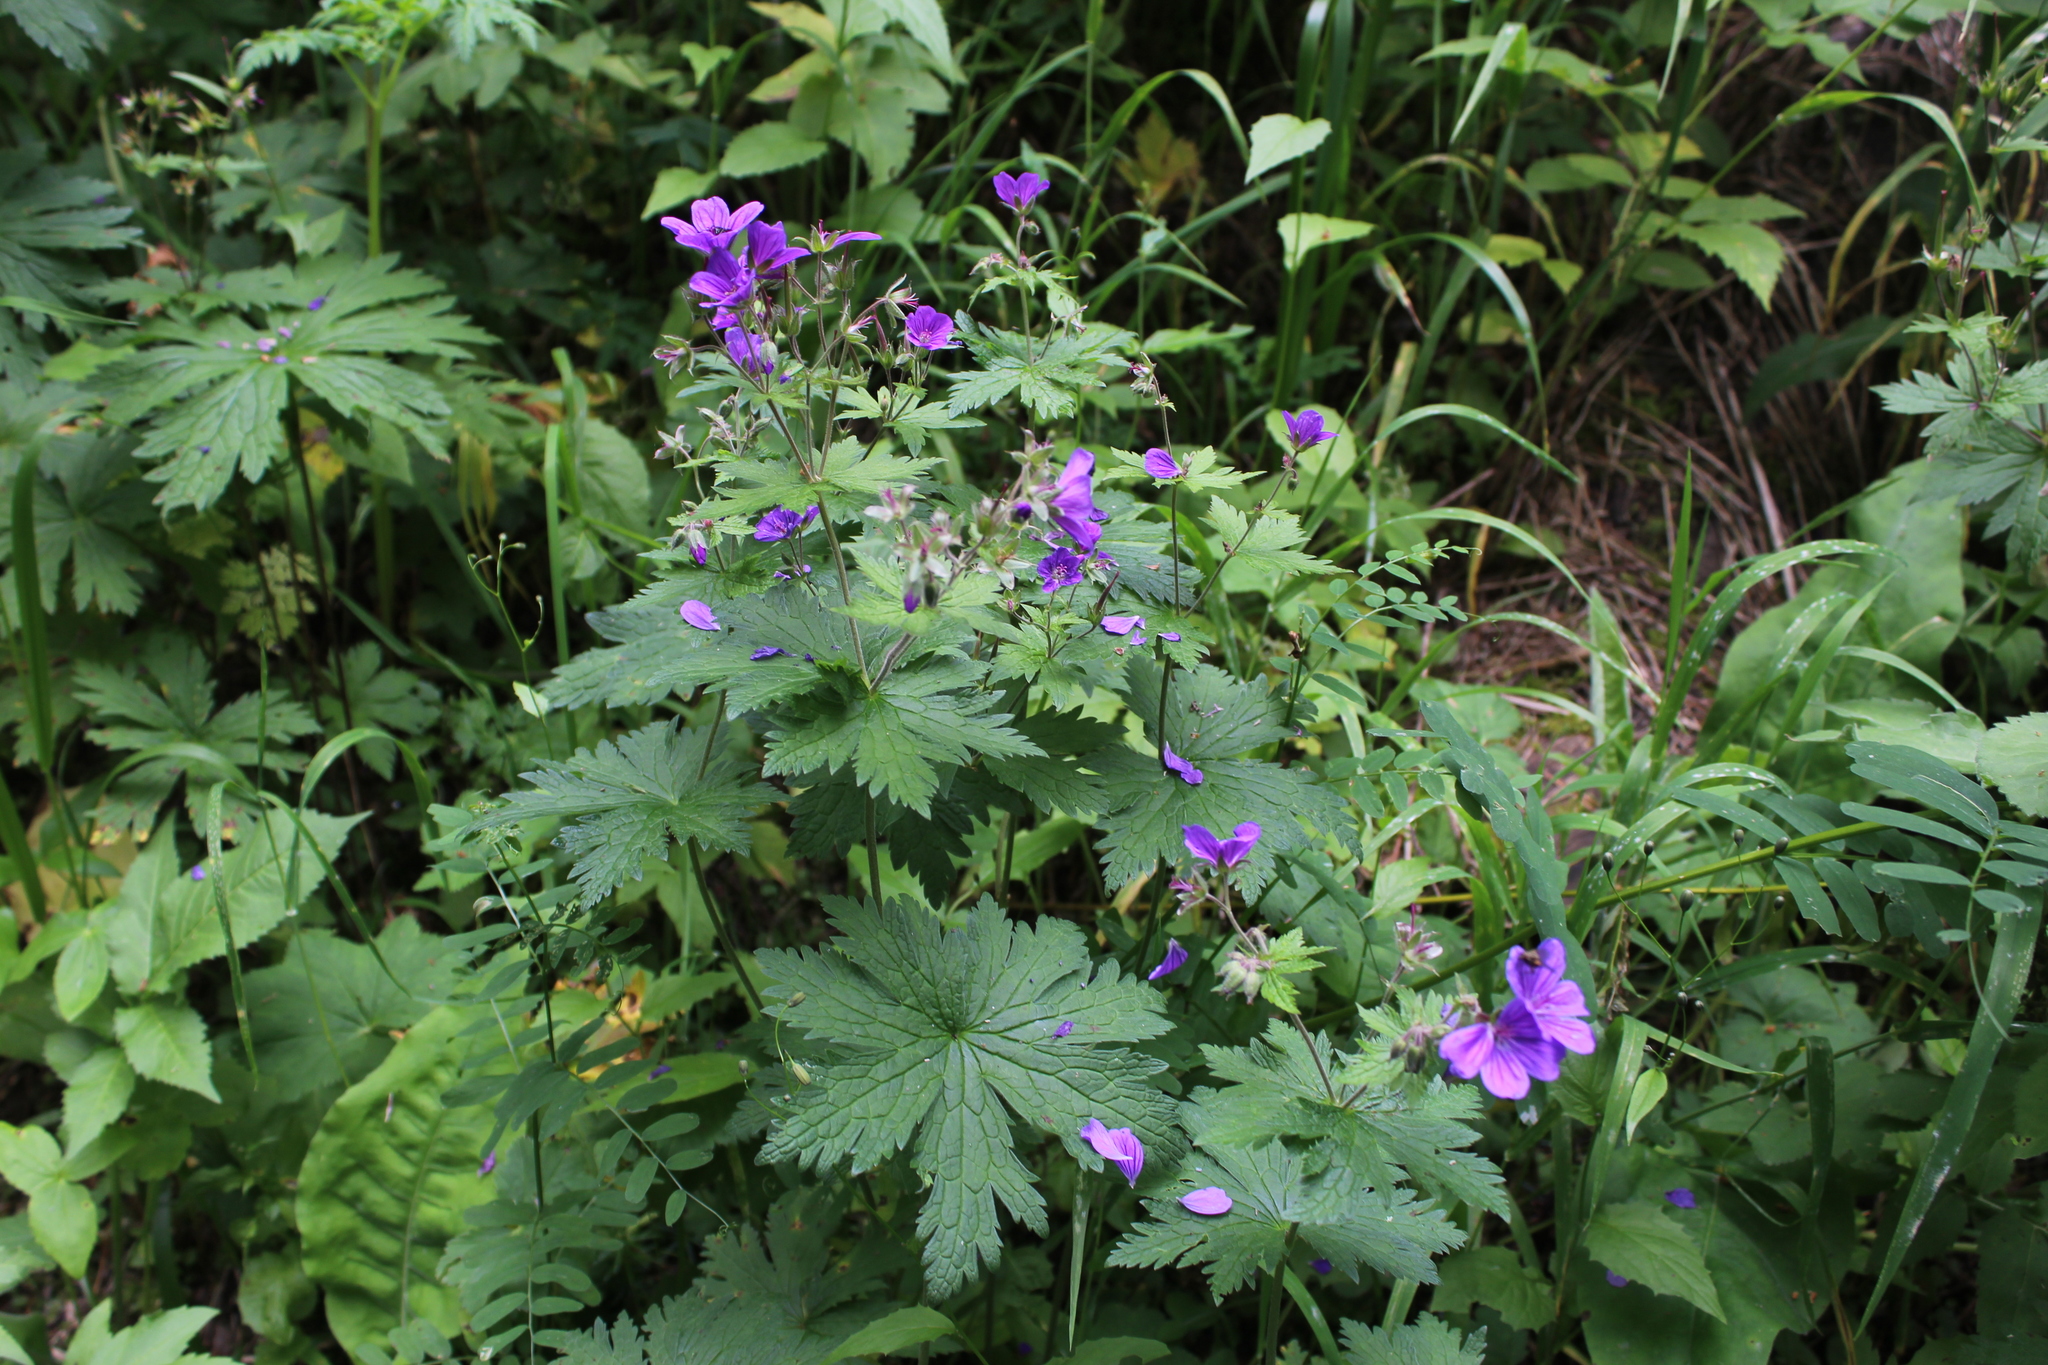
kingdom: Plantae
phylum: Tracheophyta
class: Magnoliopsida
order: Geraniales
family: Geraniaceae
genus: Geranium
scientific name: Geranium sylvaticum
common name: Wood crane's-bill
